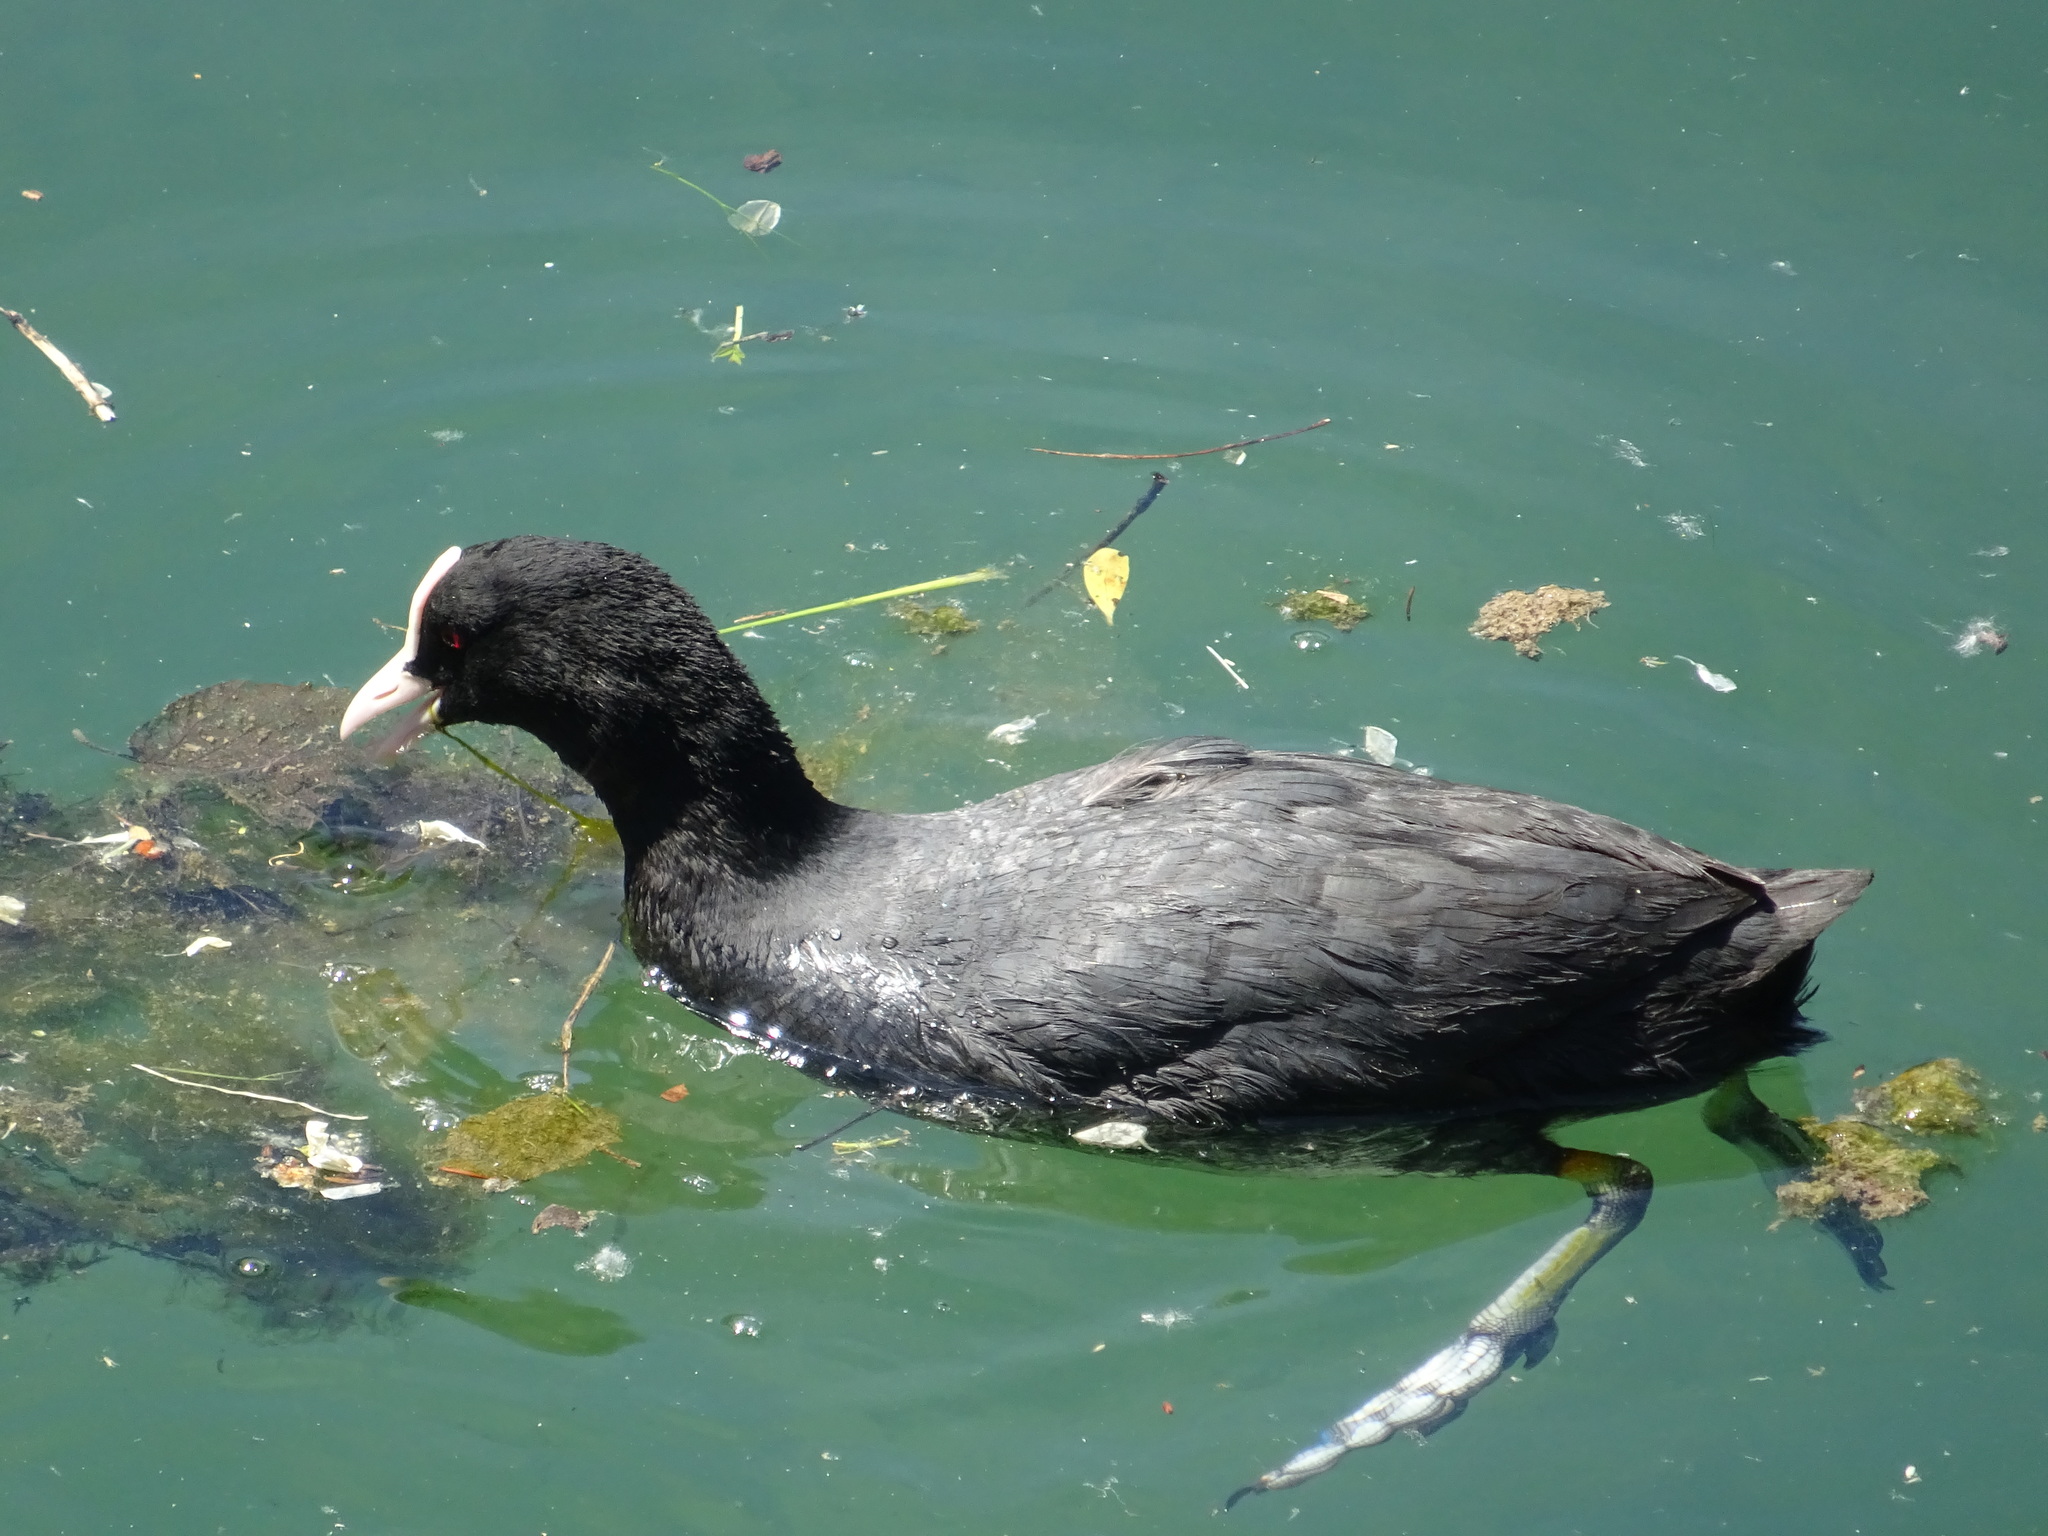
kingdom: Animalia
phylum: Chordata
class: Aves
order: Gruiformes
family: Rallidae
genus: Fulica
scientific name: Fulica atra
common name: Eurasian coot
